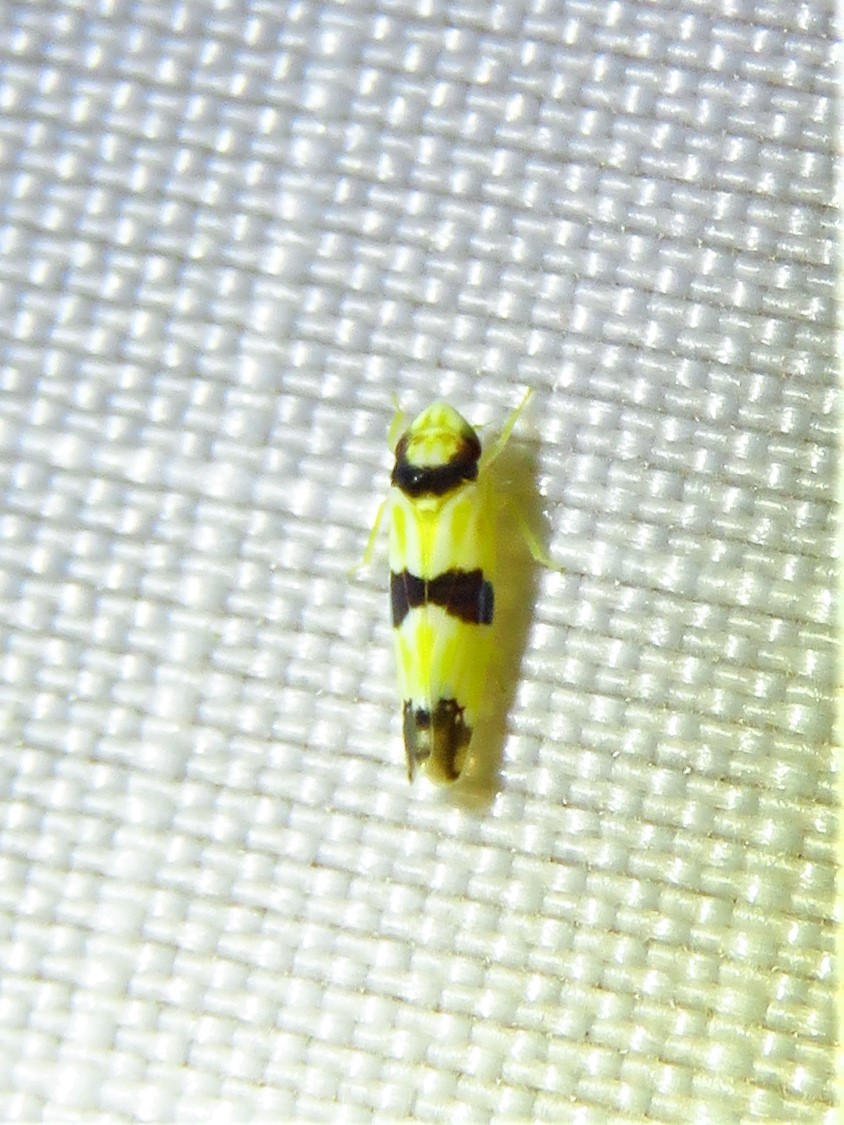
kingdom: Animalia
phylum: Arthropoda
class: Insecta
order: Hemiptera
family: Cicadellidae
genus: Erythroneura
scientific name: Erythroneura calycula
